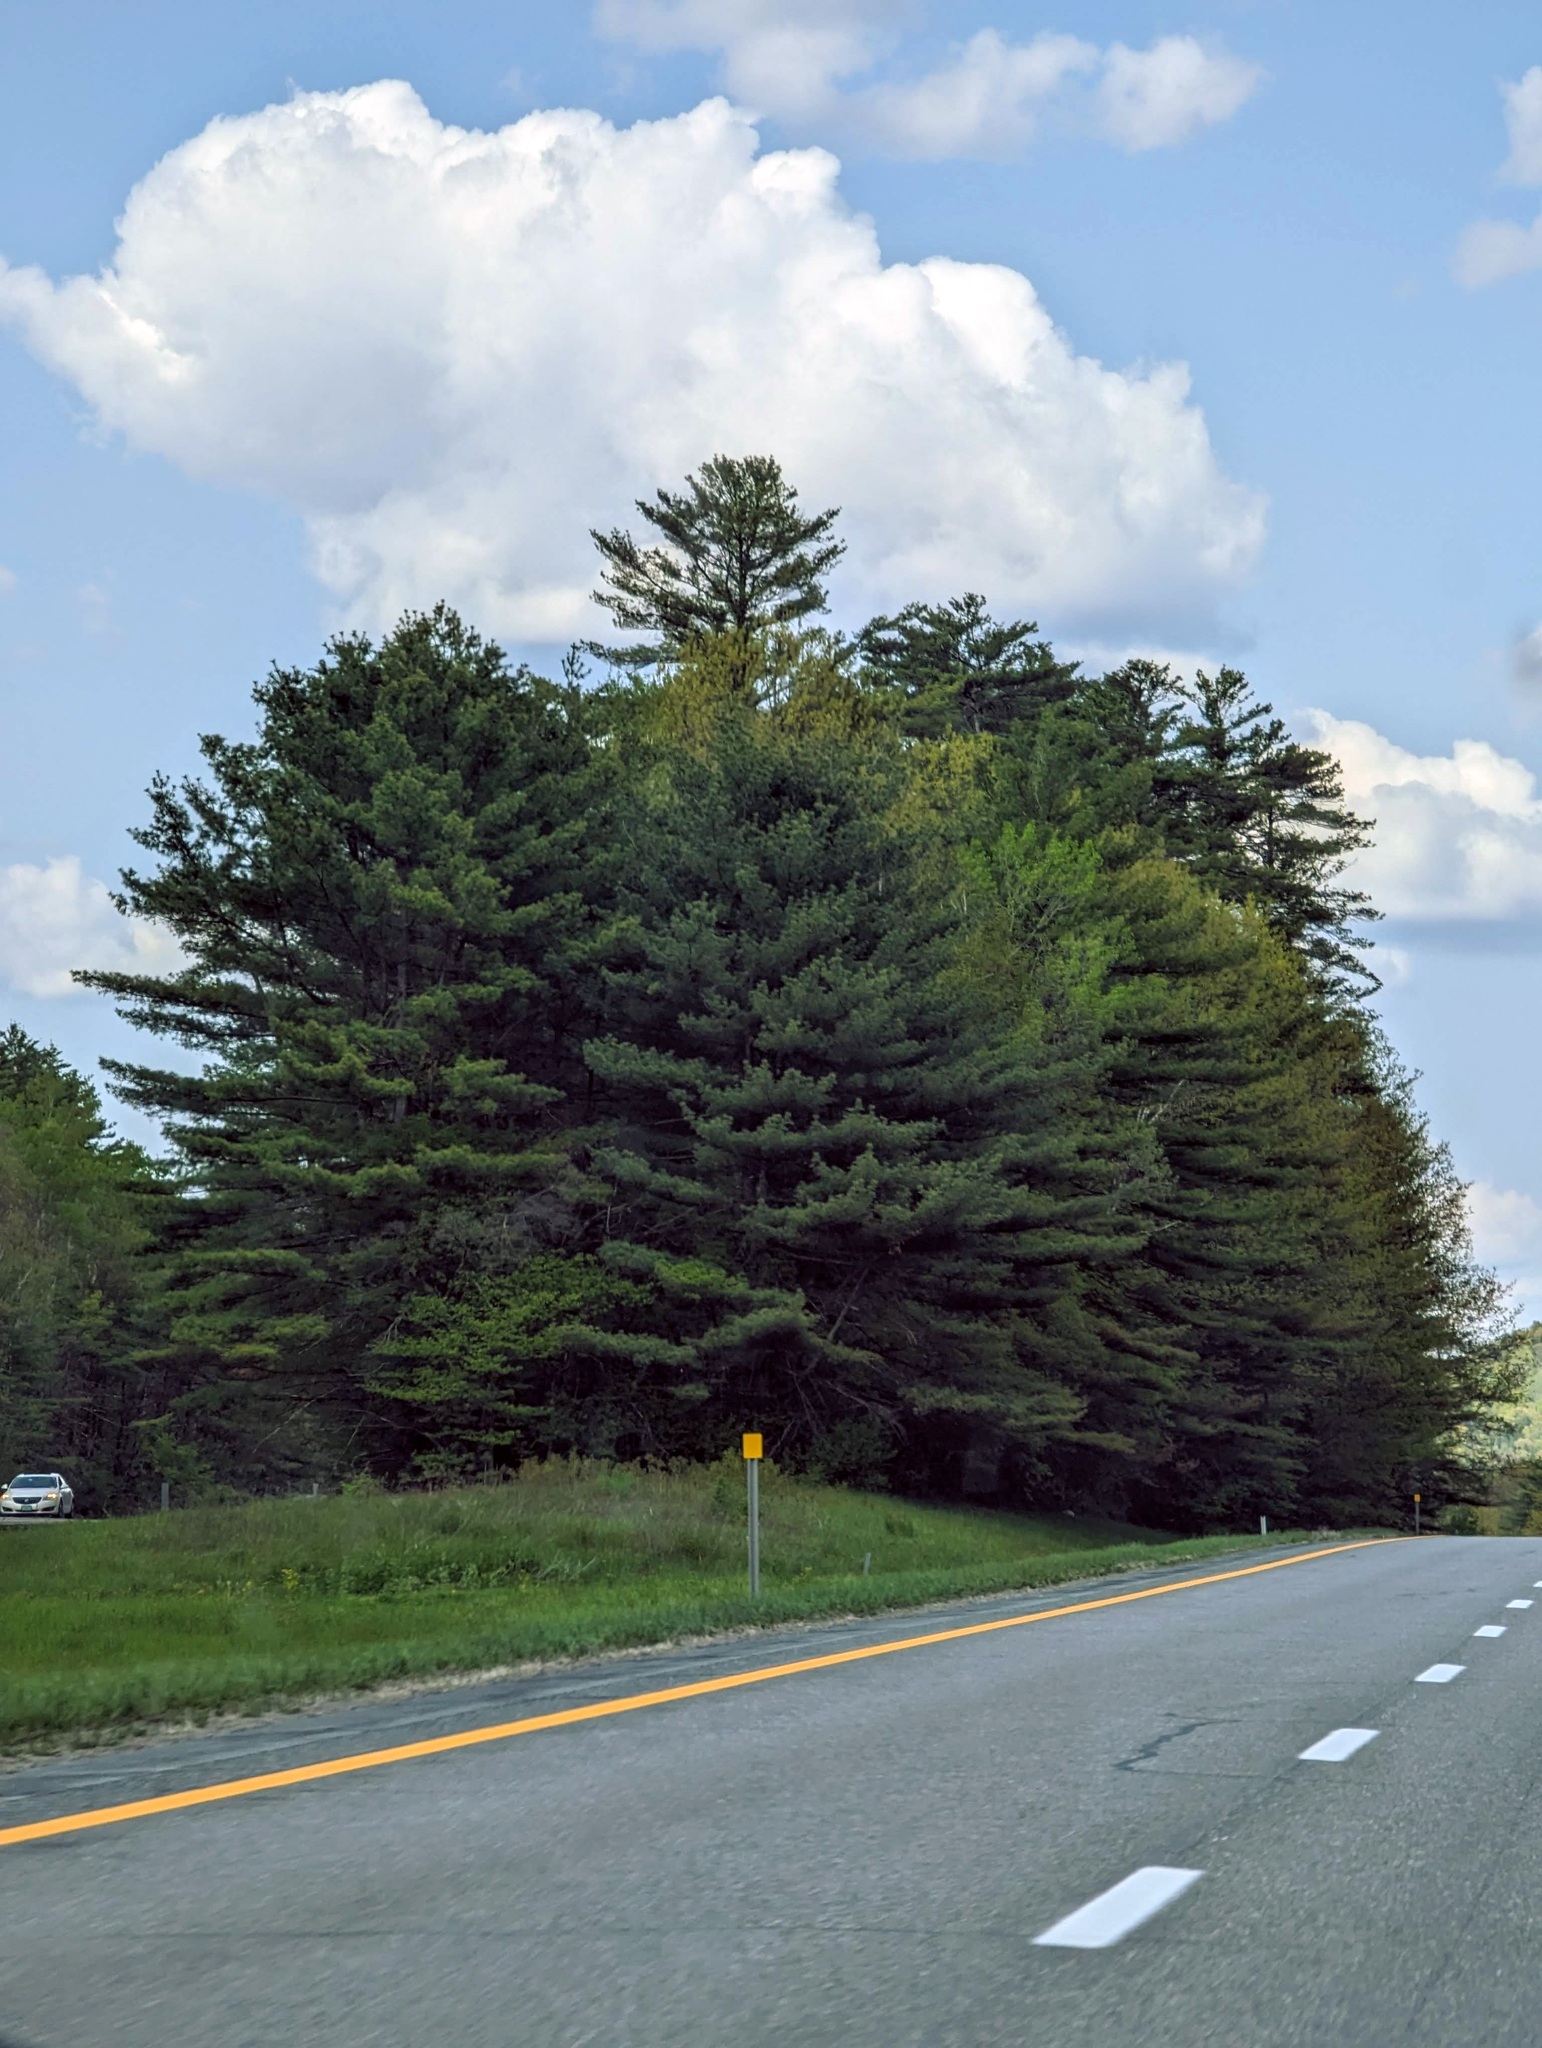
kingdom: Plantae
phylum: Tracheophyta
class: Pinopsida
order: Pinales
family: Pinaceae
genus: Pinus
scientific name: Pinus strobus
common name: Weymouth pine
